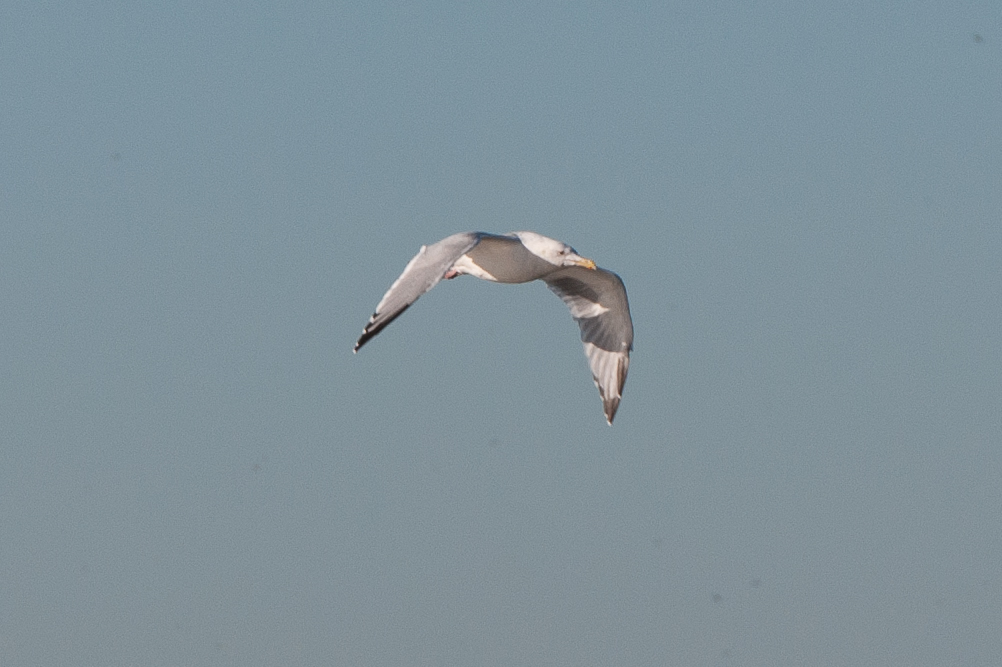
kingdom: Animalia
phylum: Chordata
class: Aves
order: Charadriiformes
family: Laridae
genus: Larus
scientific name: Larus argentatus
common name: Herring gull
